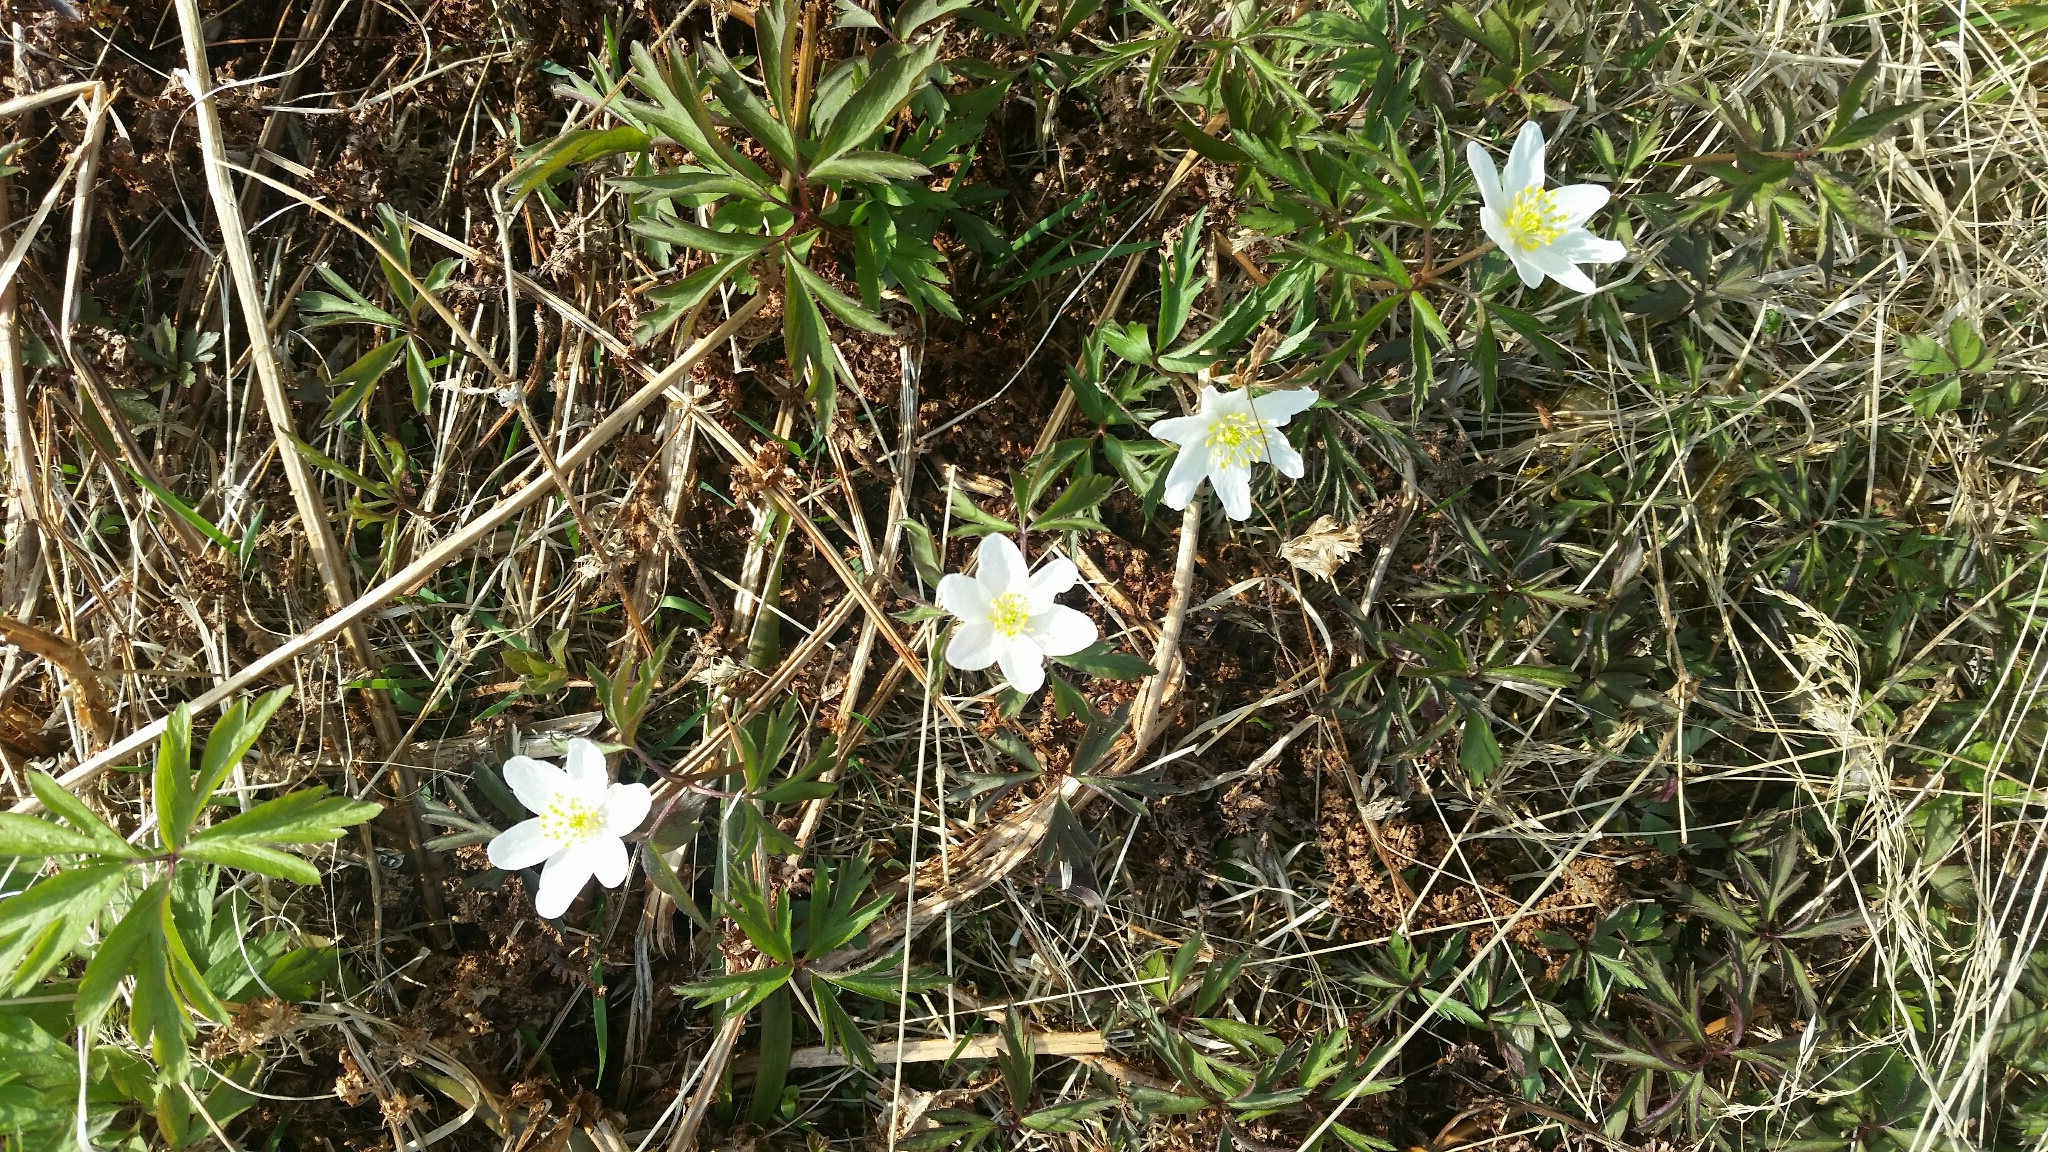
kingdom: Plantae
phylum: Tracheophyta
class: Magnoliopsida
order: Ranunculales
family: Ranunculaceae
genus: Anemone
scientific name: Anemone nemorosa
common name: Wood anemone
